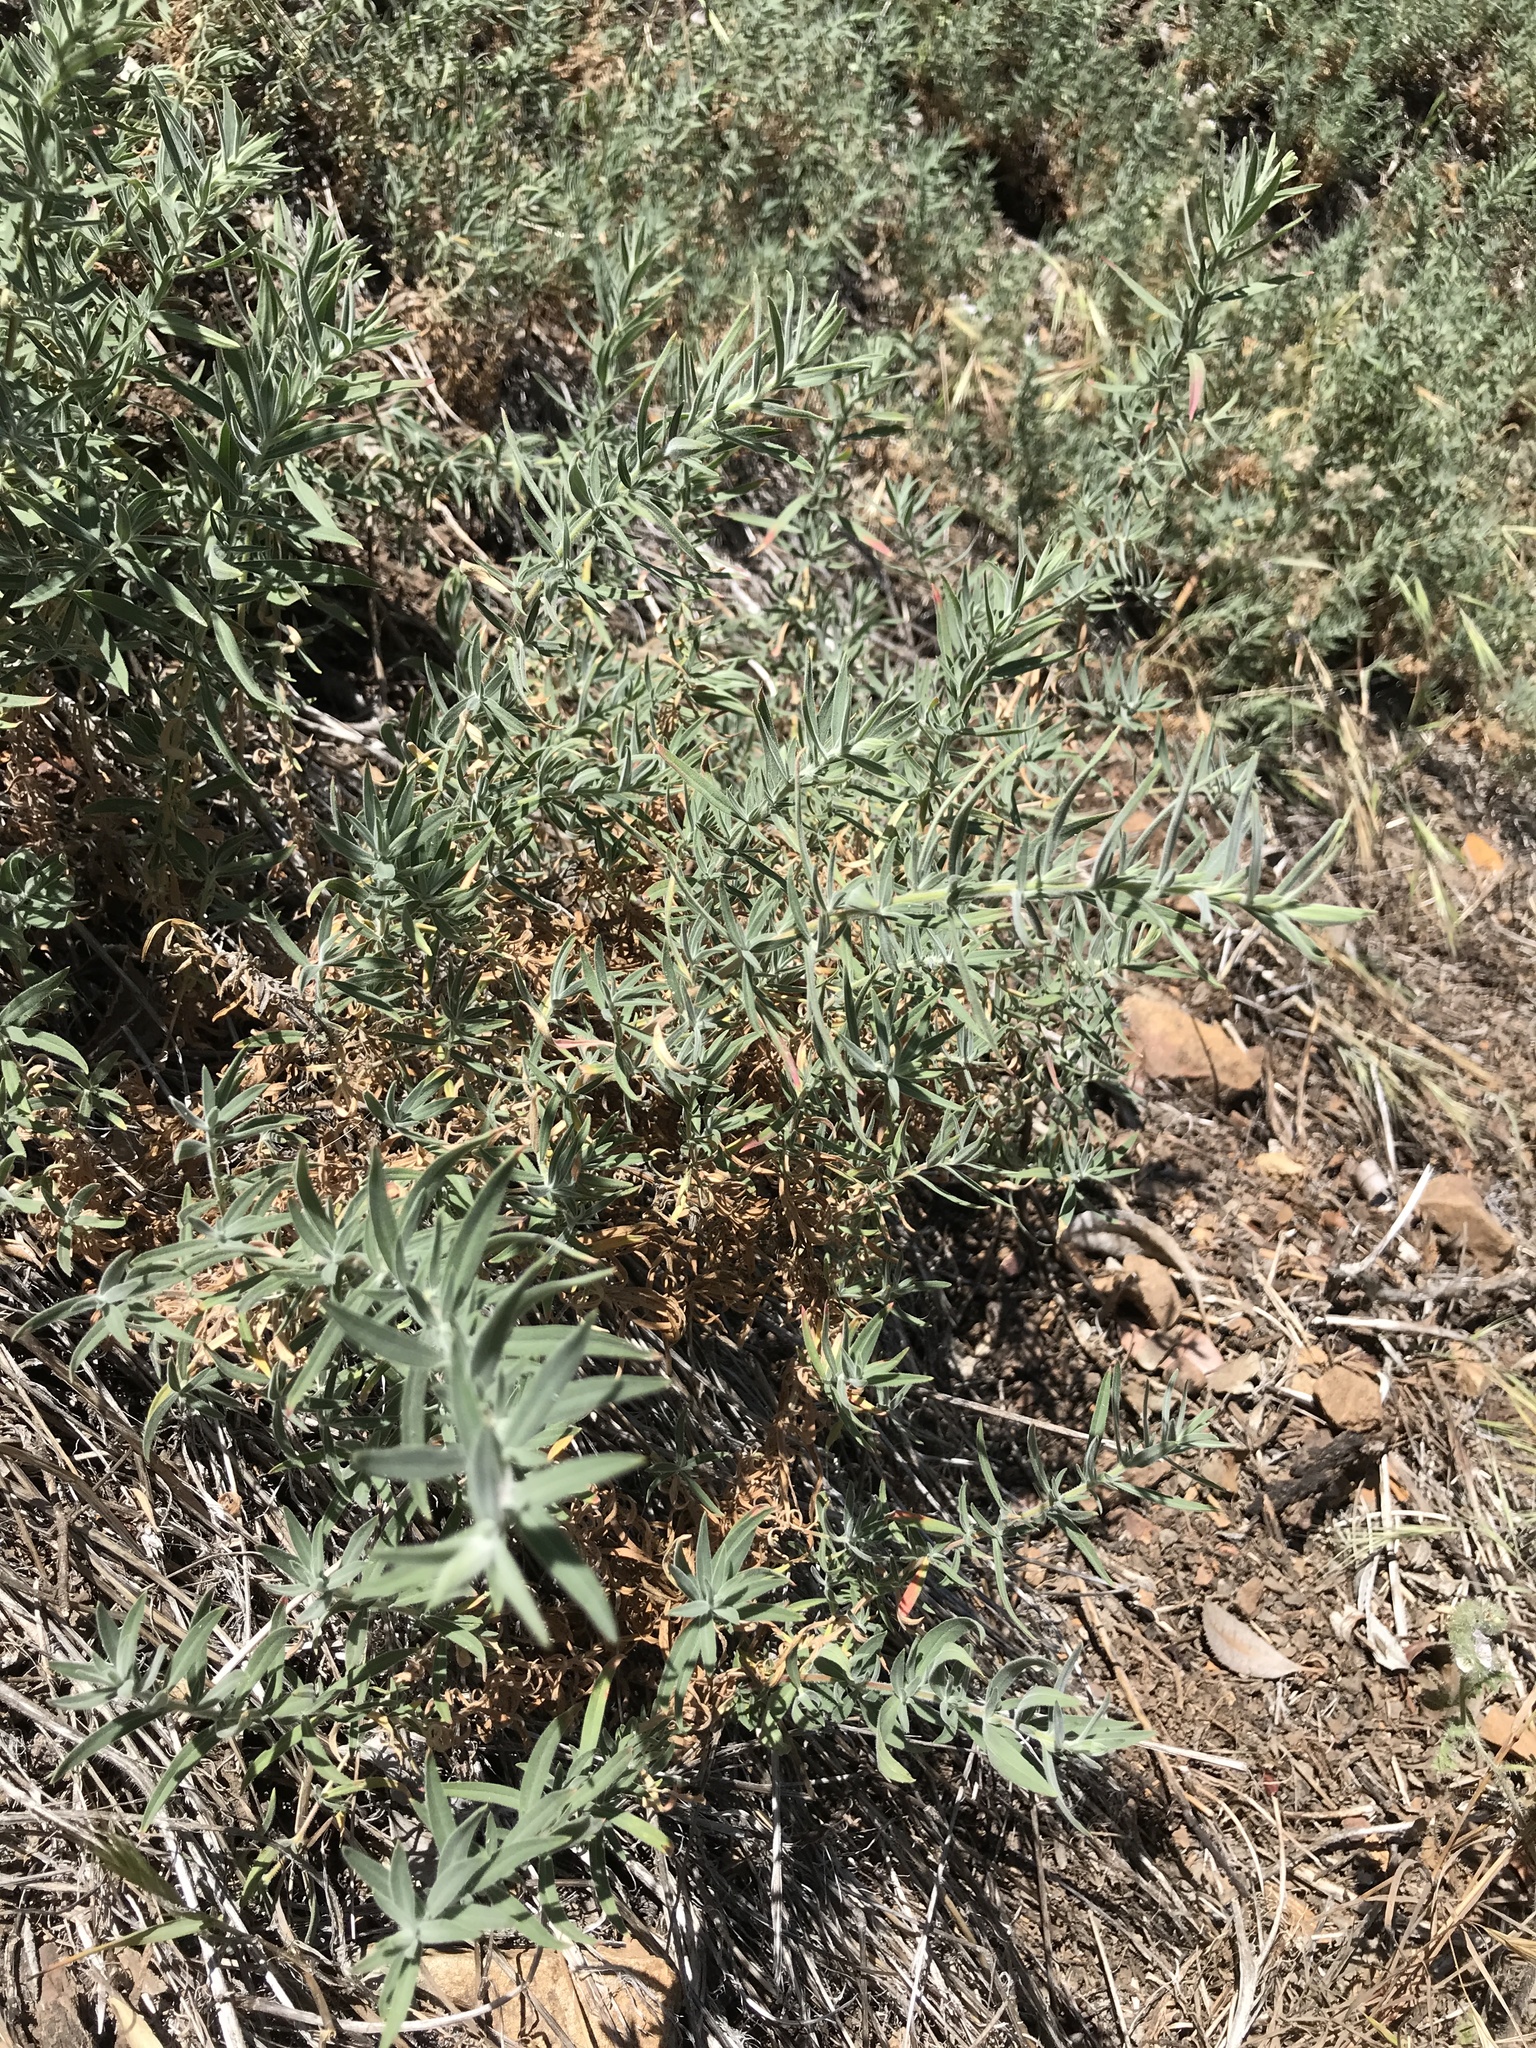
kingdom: Plantae
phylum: Tracheophyta
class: Magnoliopsida
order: Myrtales
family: Onagraceae
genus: Epilobium
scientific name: Epilobium canum
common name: California-fuchsia
